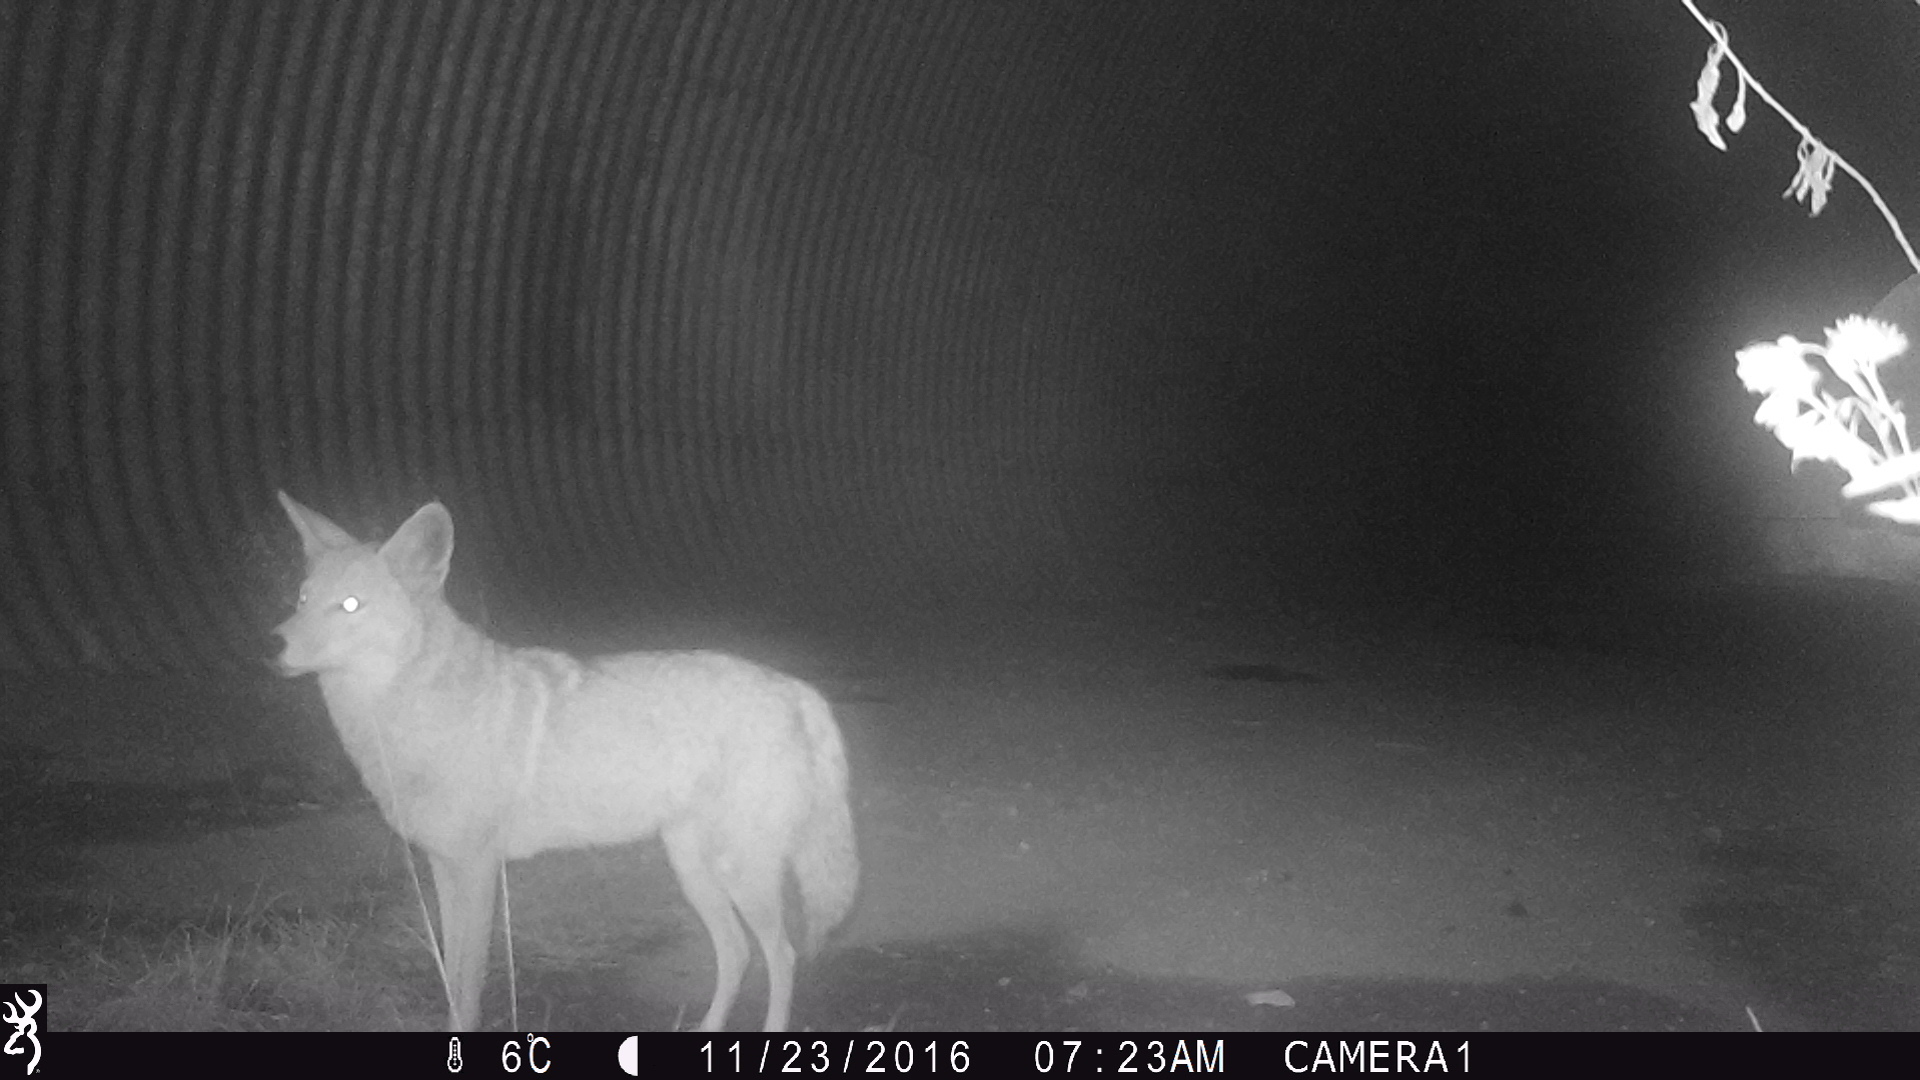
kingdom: Animalia
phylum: Chordata
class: Mammalia
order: Carnivora
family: Canidae
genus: Canis
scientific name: Canis latrans
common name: Coyote
